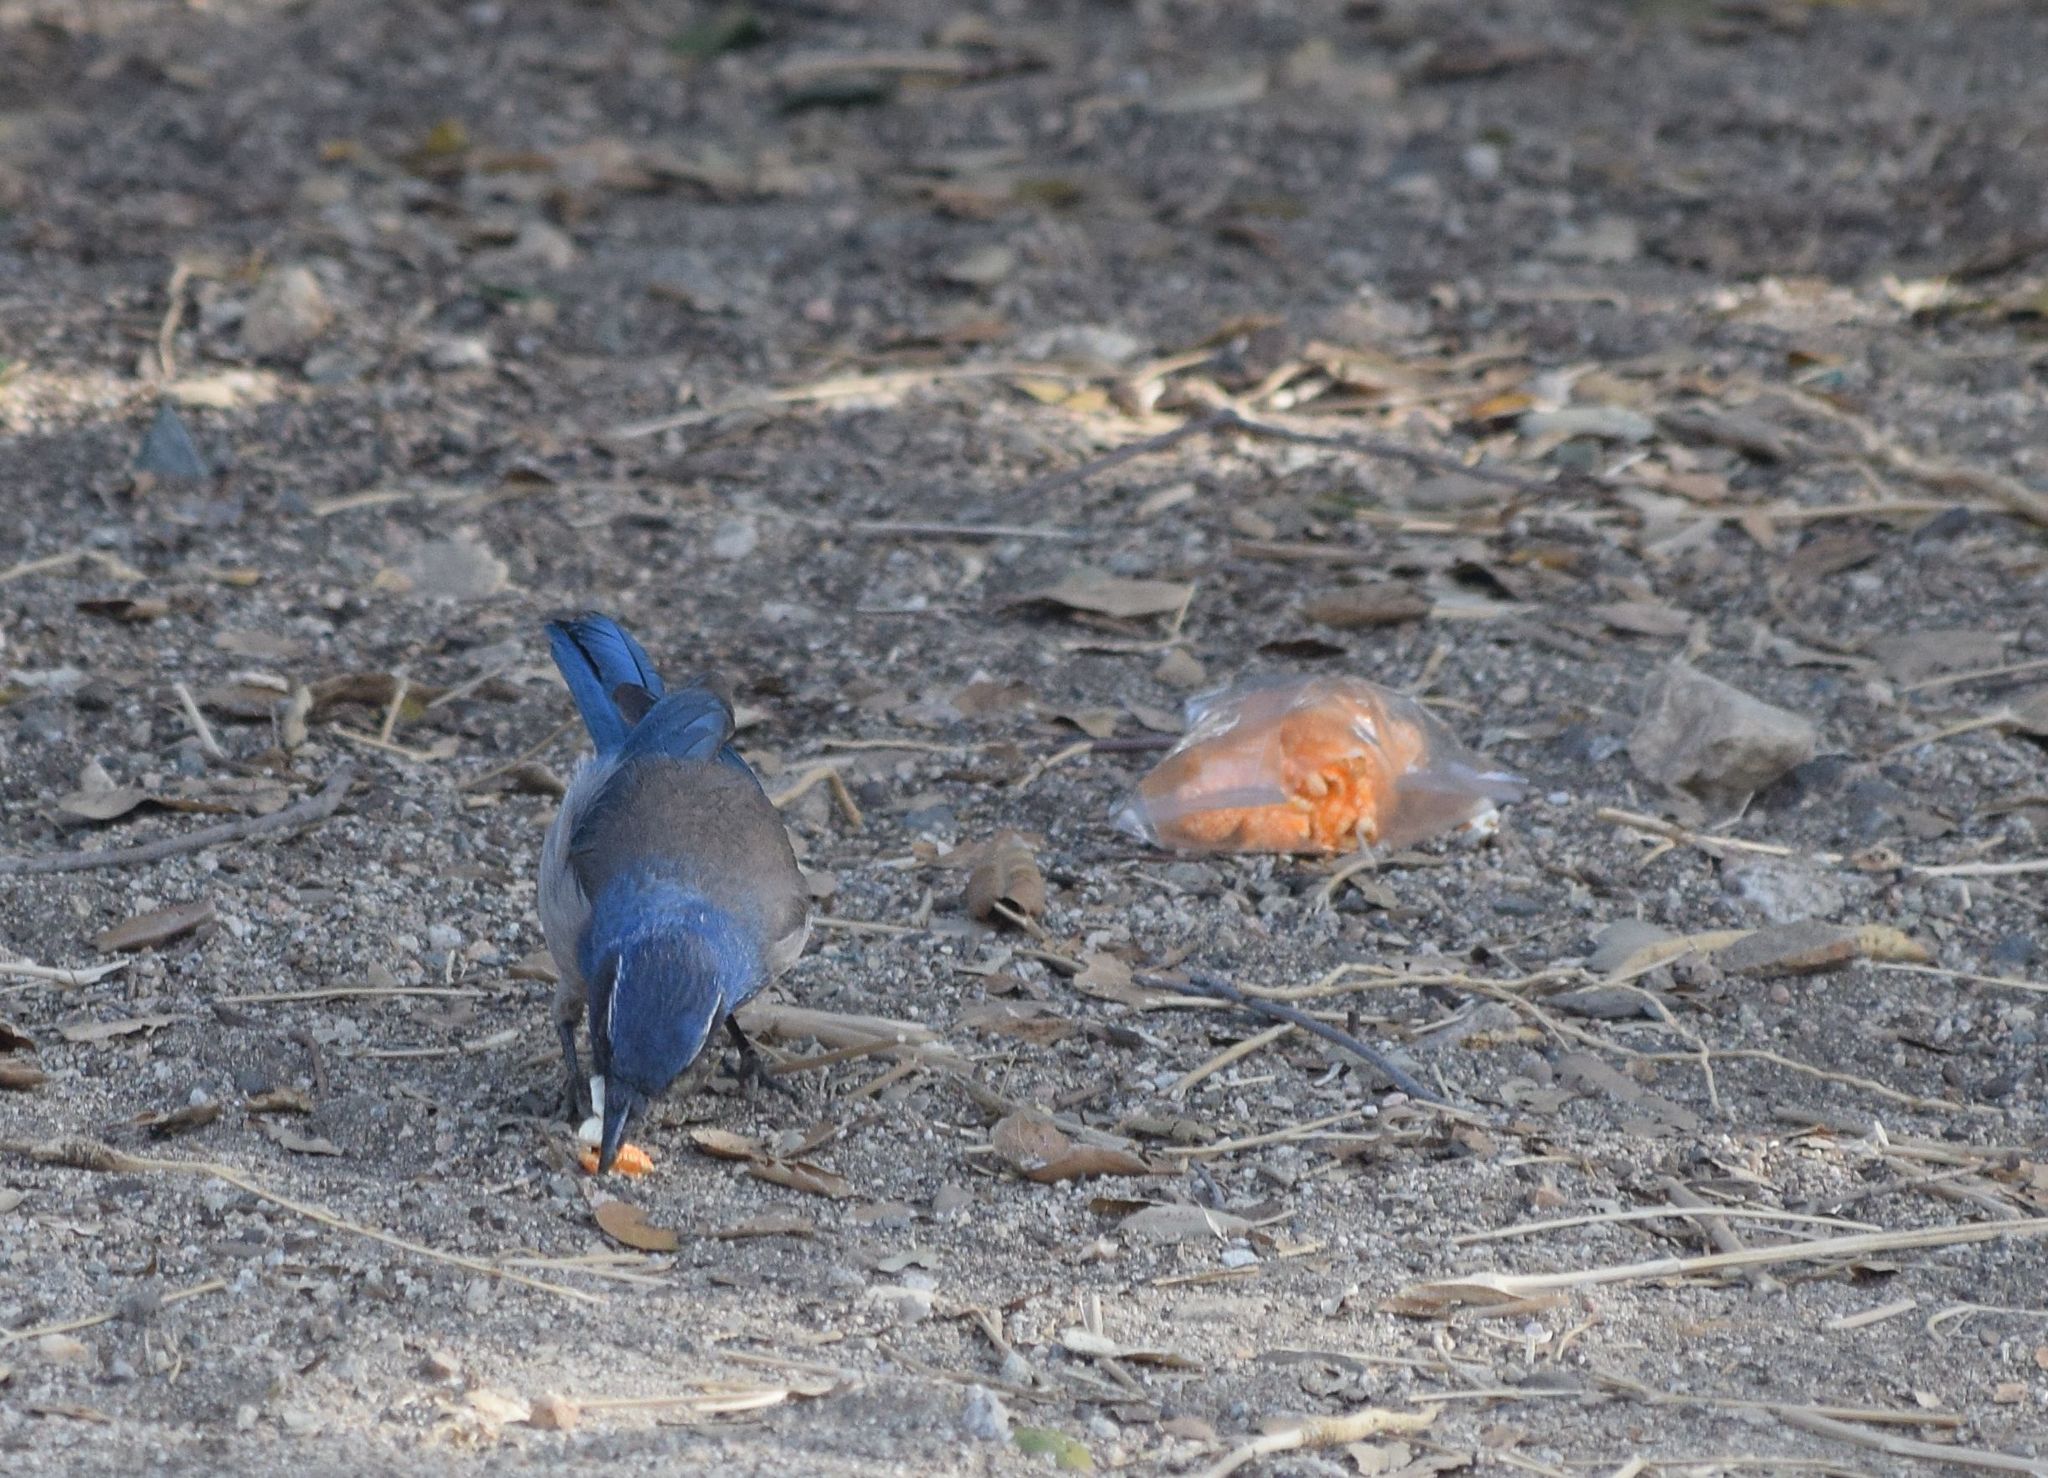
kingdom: Animalia
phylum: Chordata
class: Aves
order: Passeriformes
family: Corvidae
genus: Aphelocoma
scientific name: Aphelocoma californica
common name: California scrub-jay
